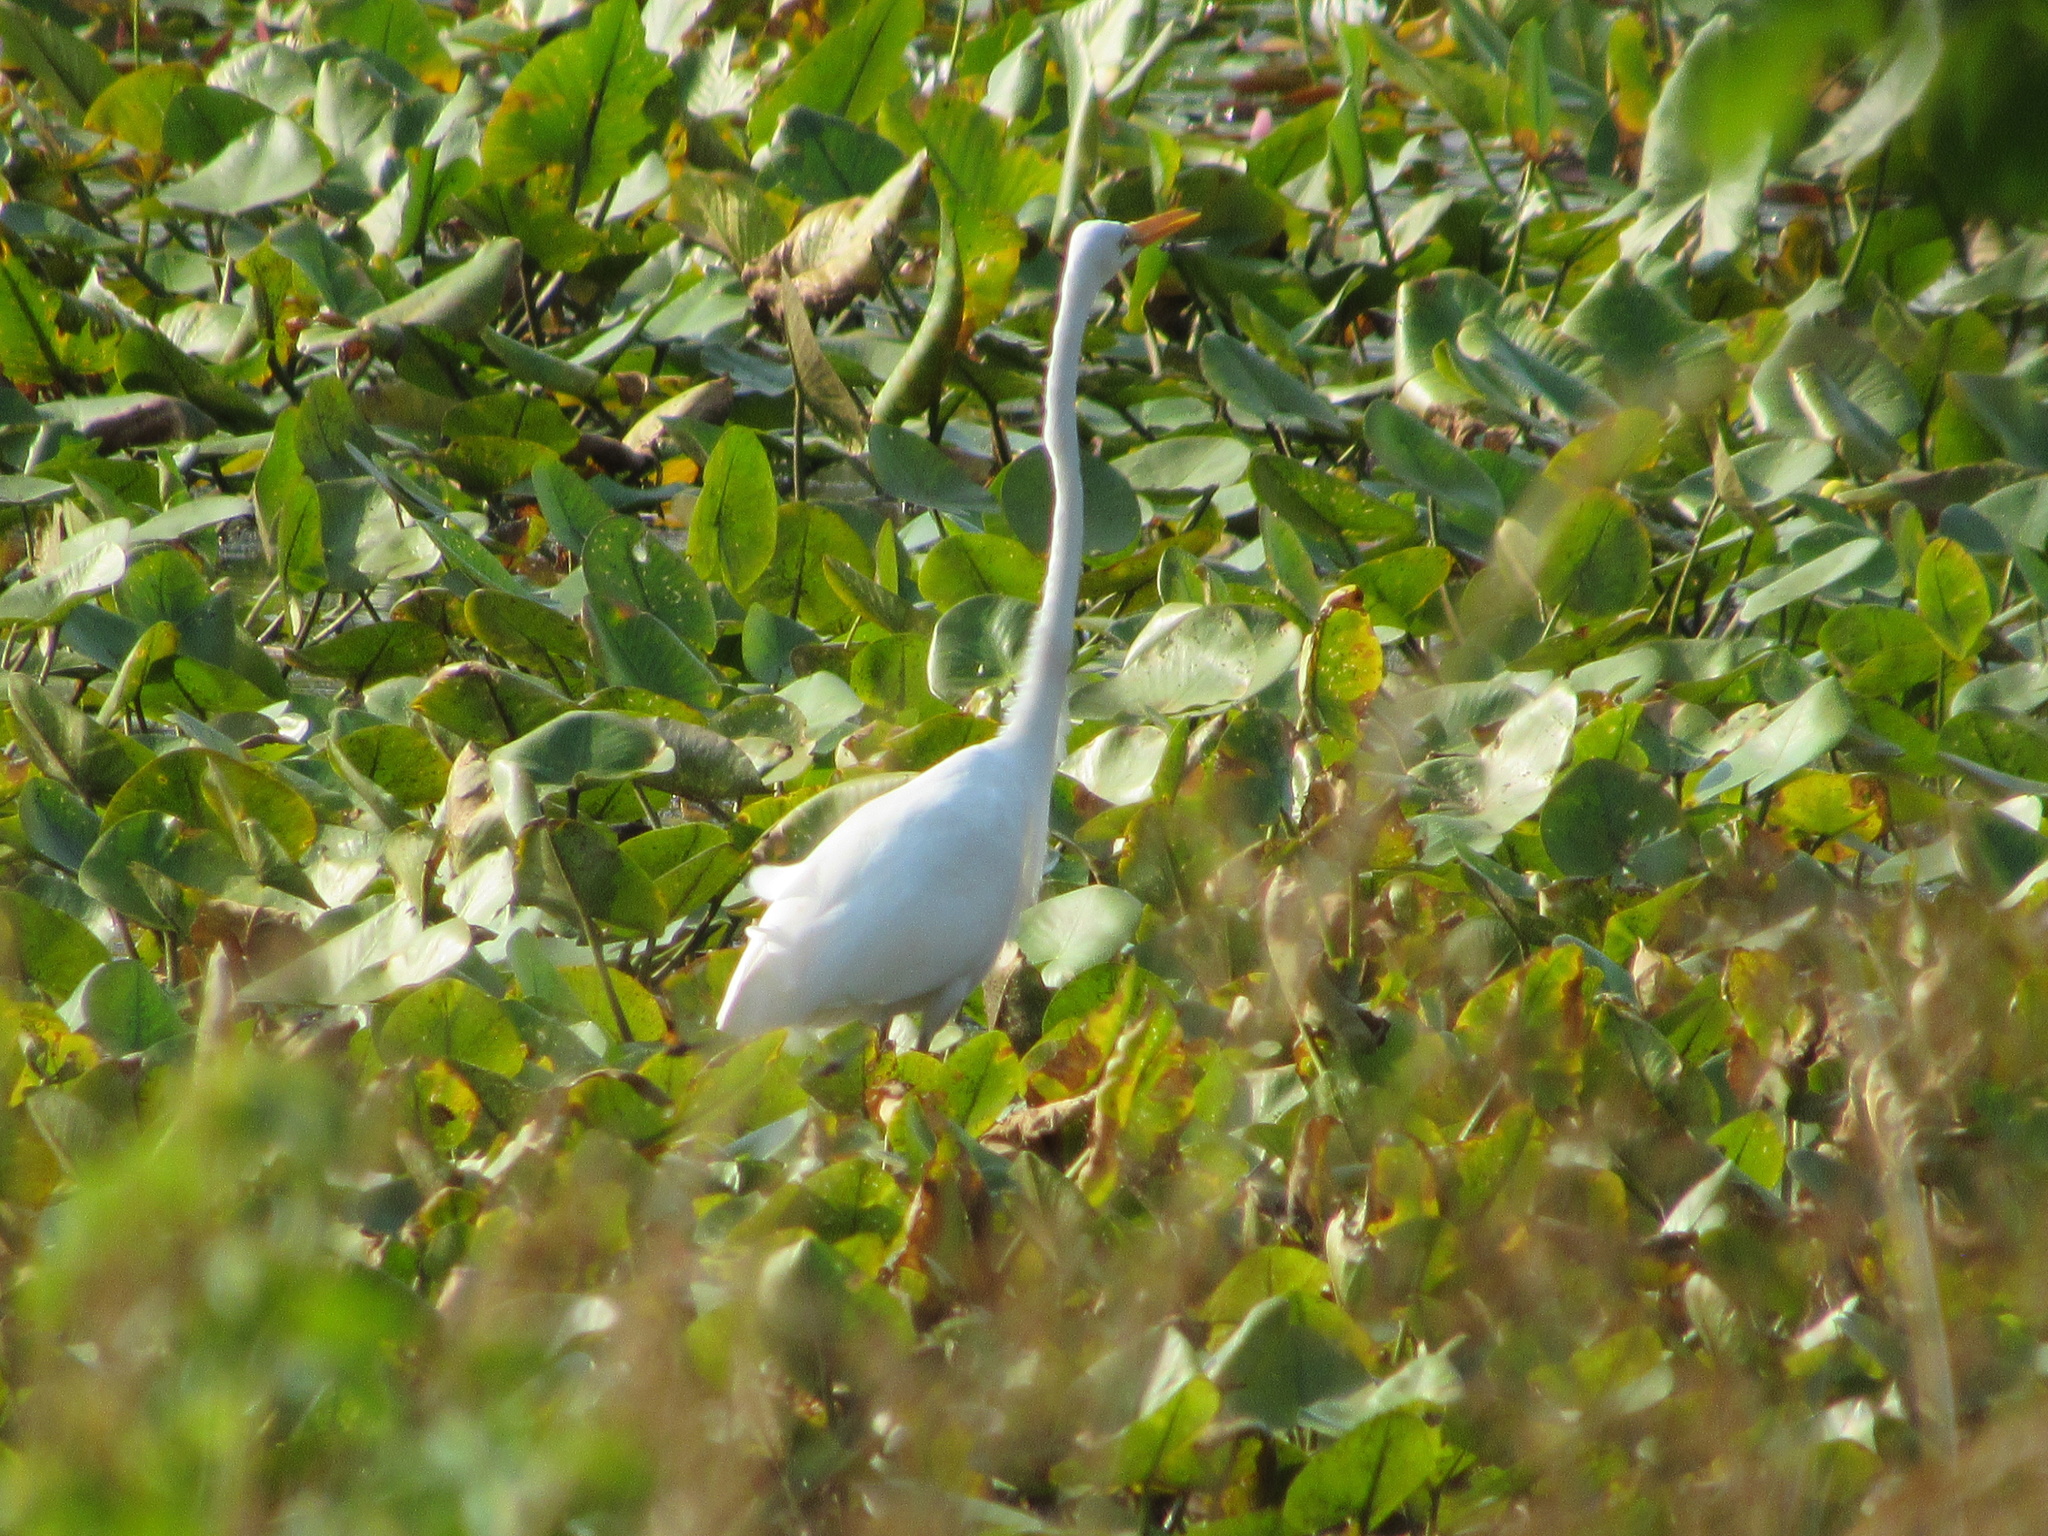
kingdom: Animalia
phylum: Chordata
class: Aves
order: Pelecaniformes
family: Ardeidae
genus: Ardea
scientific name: Ardea alba
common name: Great egret
